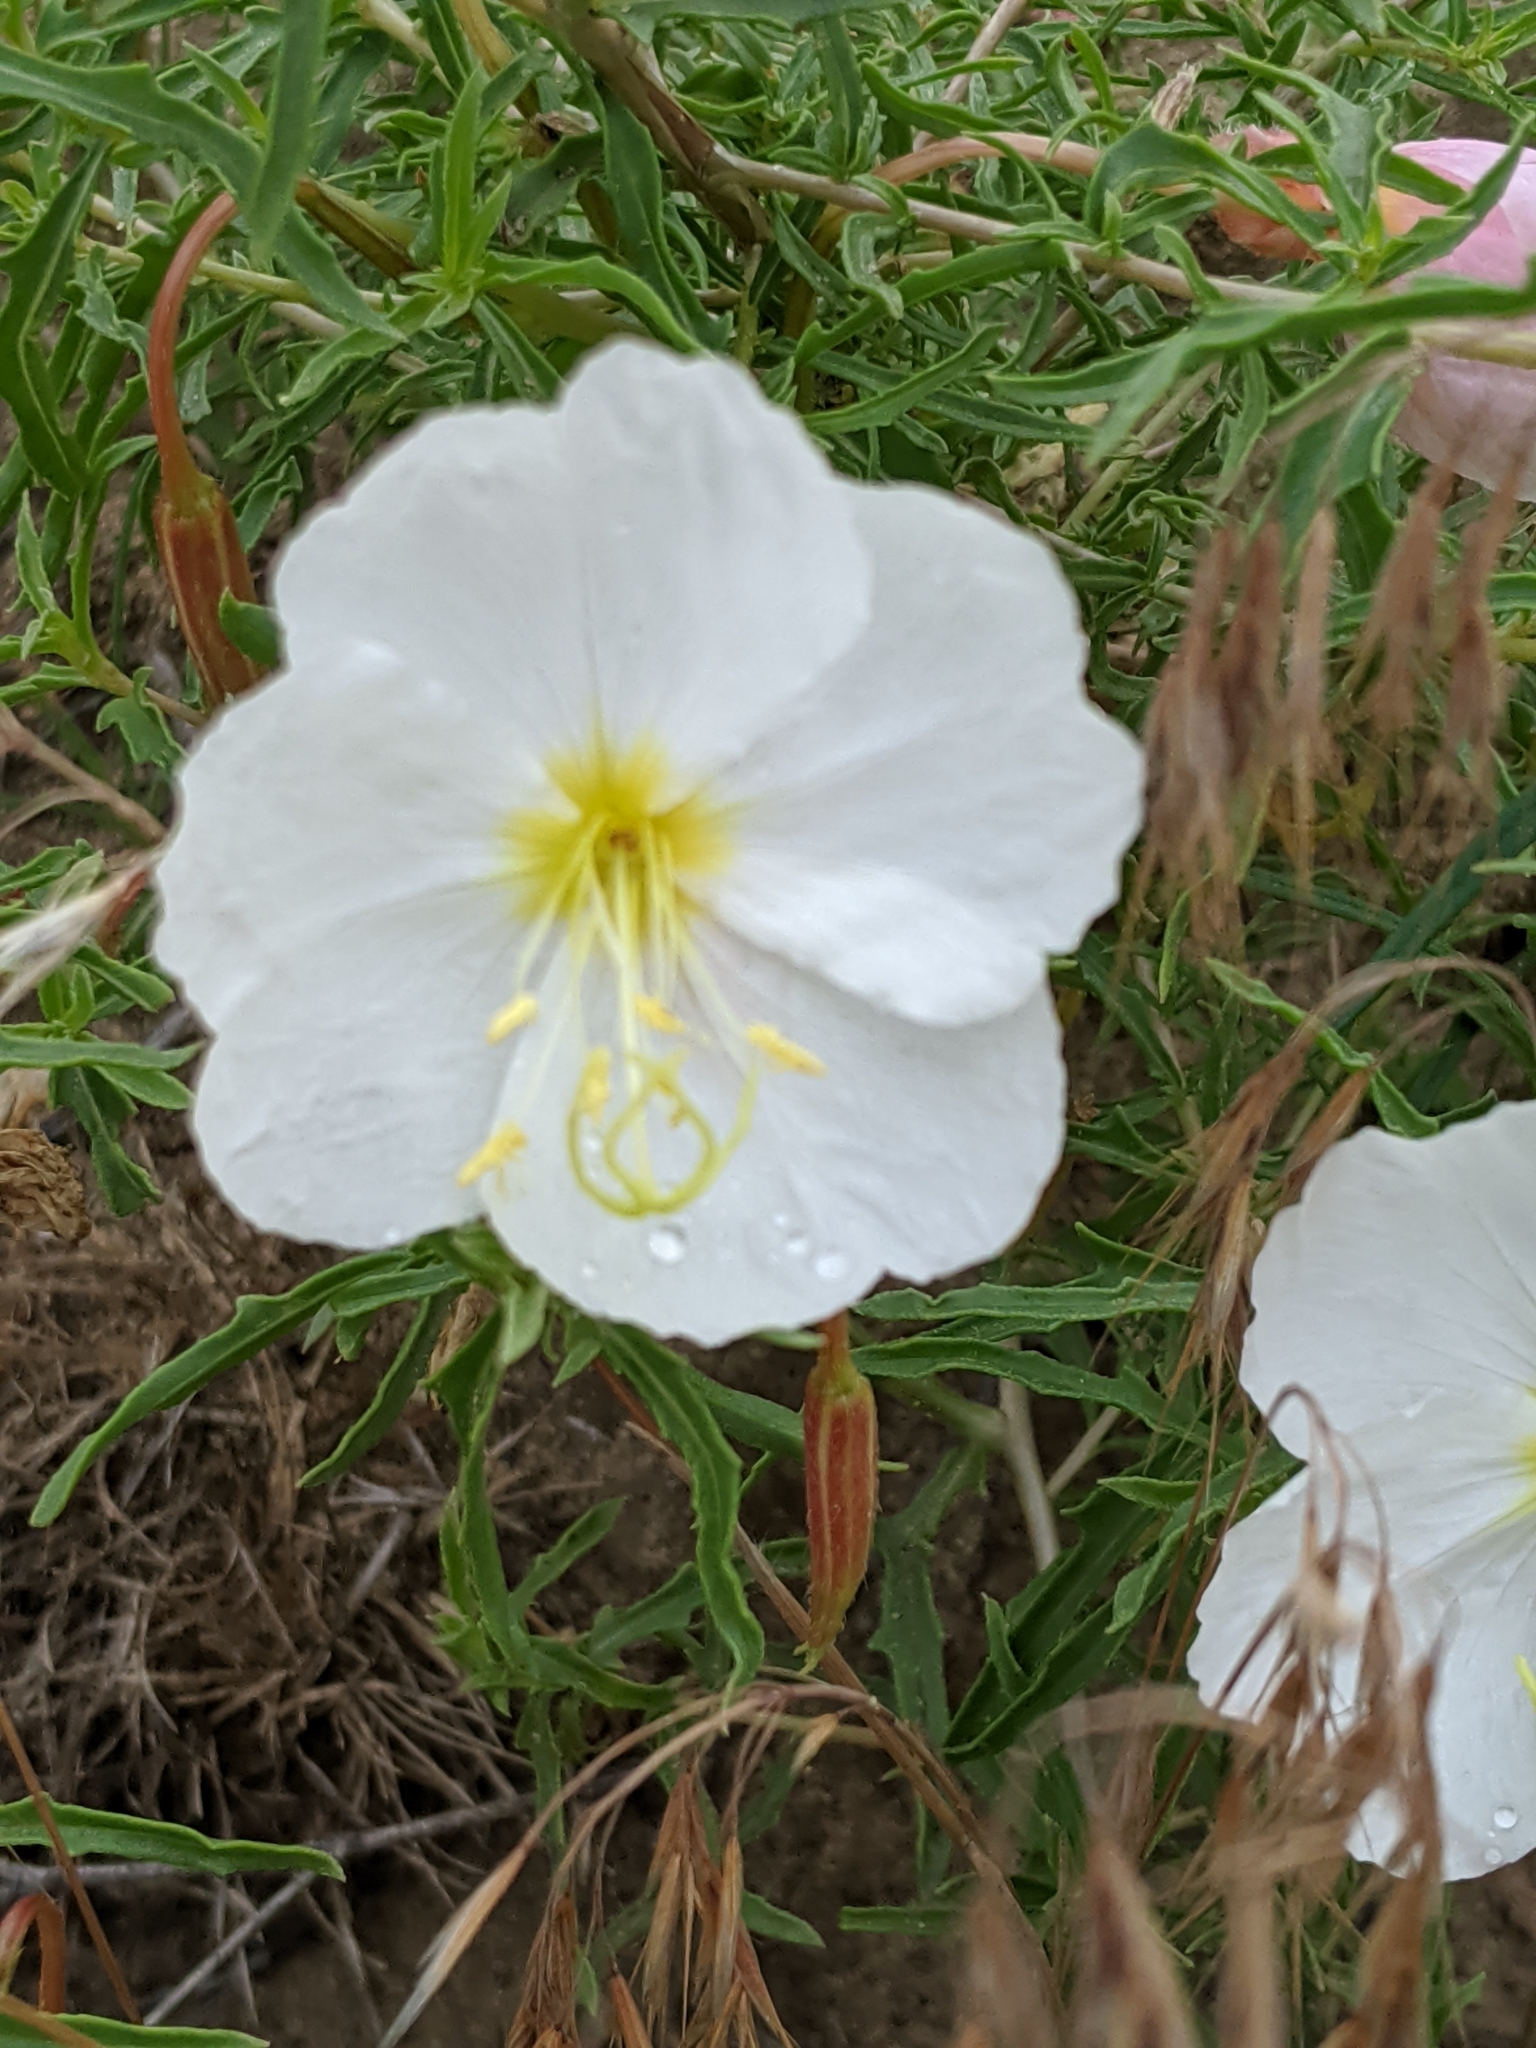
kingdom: Plantae
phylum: Tracheophyta
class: Magnoliopsida
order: Myrtales
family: Onagraceae
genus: Oenothera
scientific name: Oenothera pallida
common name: Pale evening-primrose
